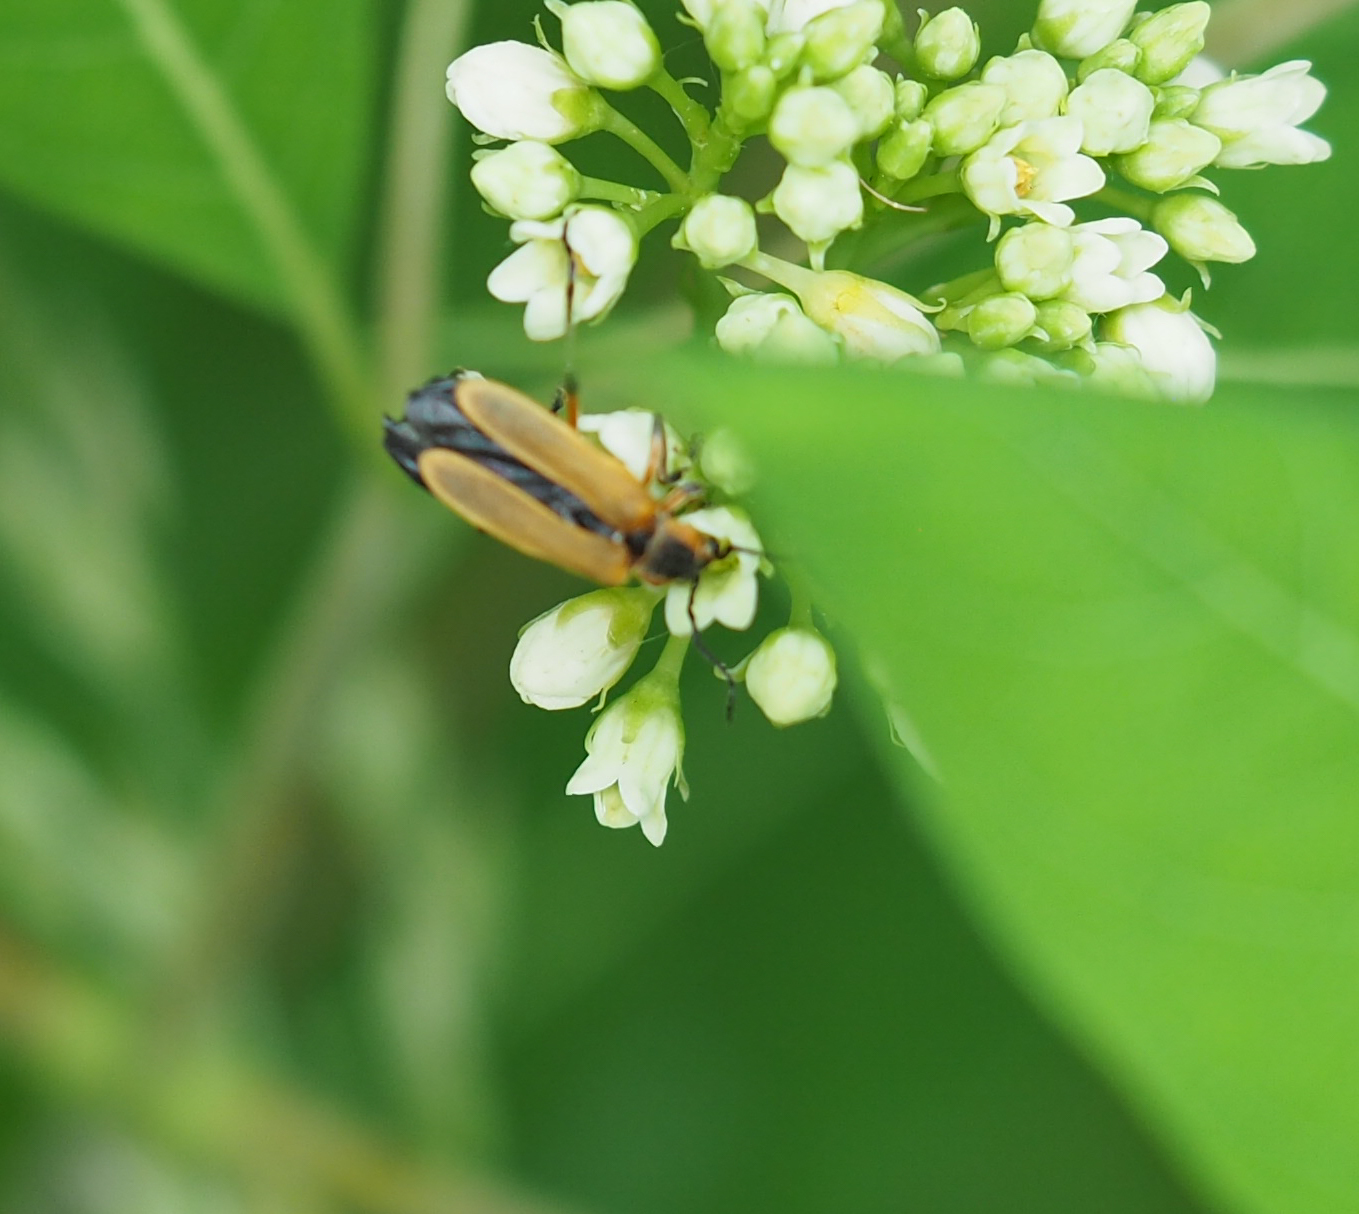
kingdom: Animalia
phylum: Arthropoda
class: Insecta
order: Coleoptera
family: Cantharidae
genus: Chauliognathus
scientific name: Chauliognathus marginatus
